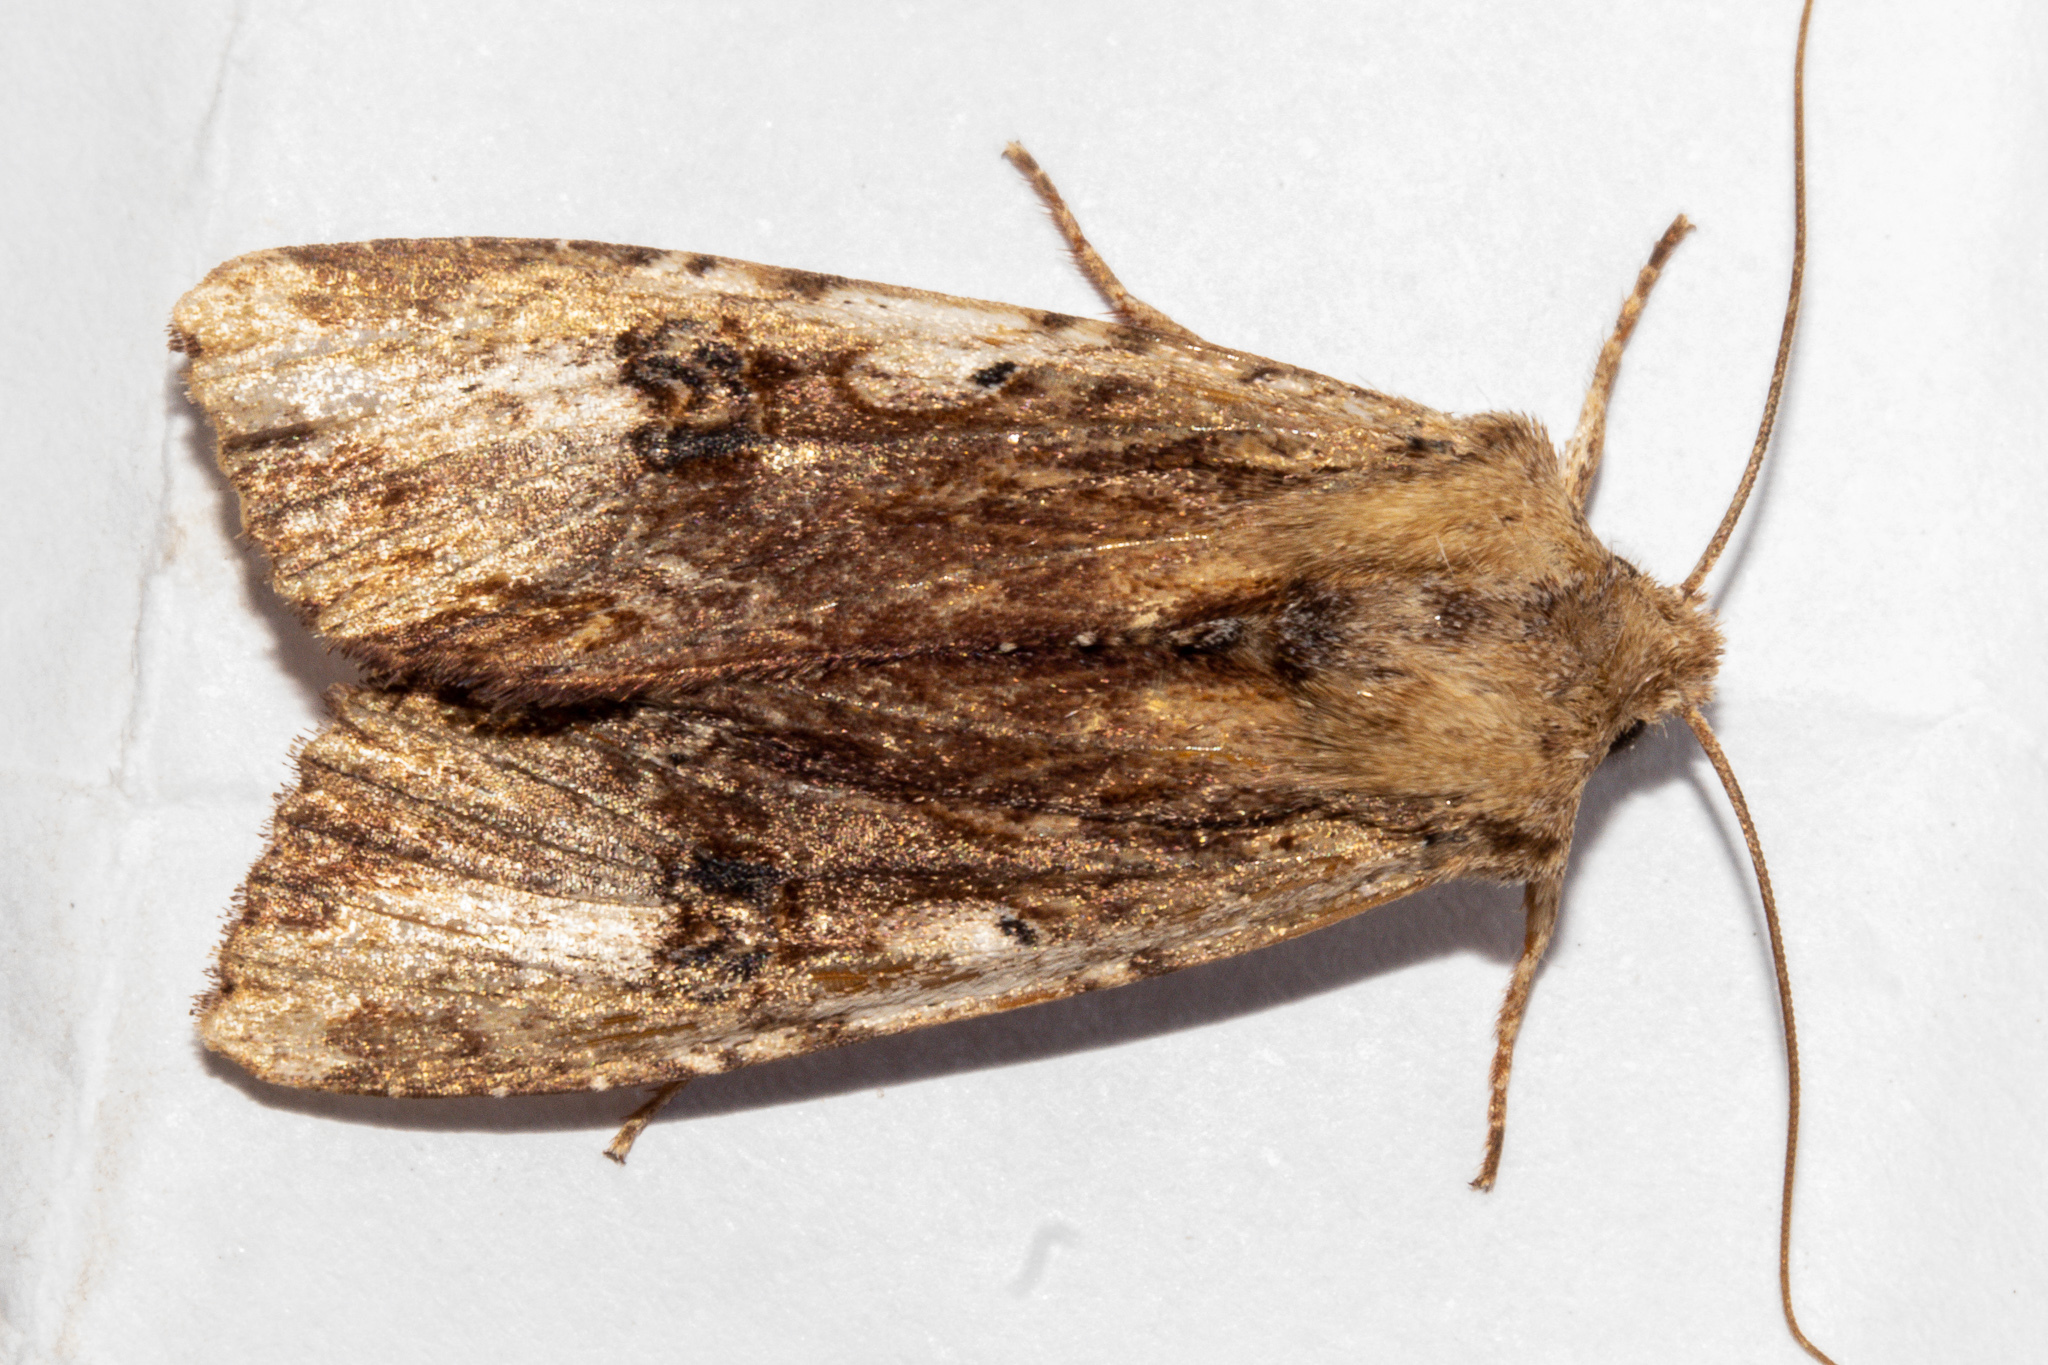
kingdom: Animalia
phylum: Arthropoda
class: Insecta
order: Lepidoptera
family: Noctuidae
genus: Ichneutica
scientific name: Ichneutica
